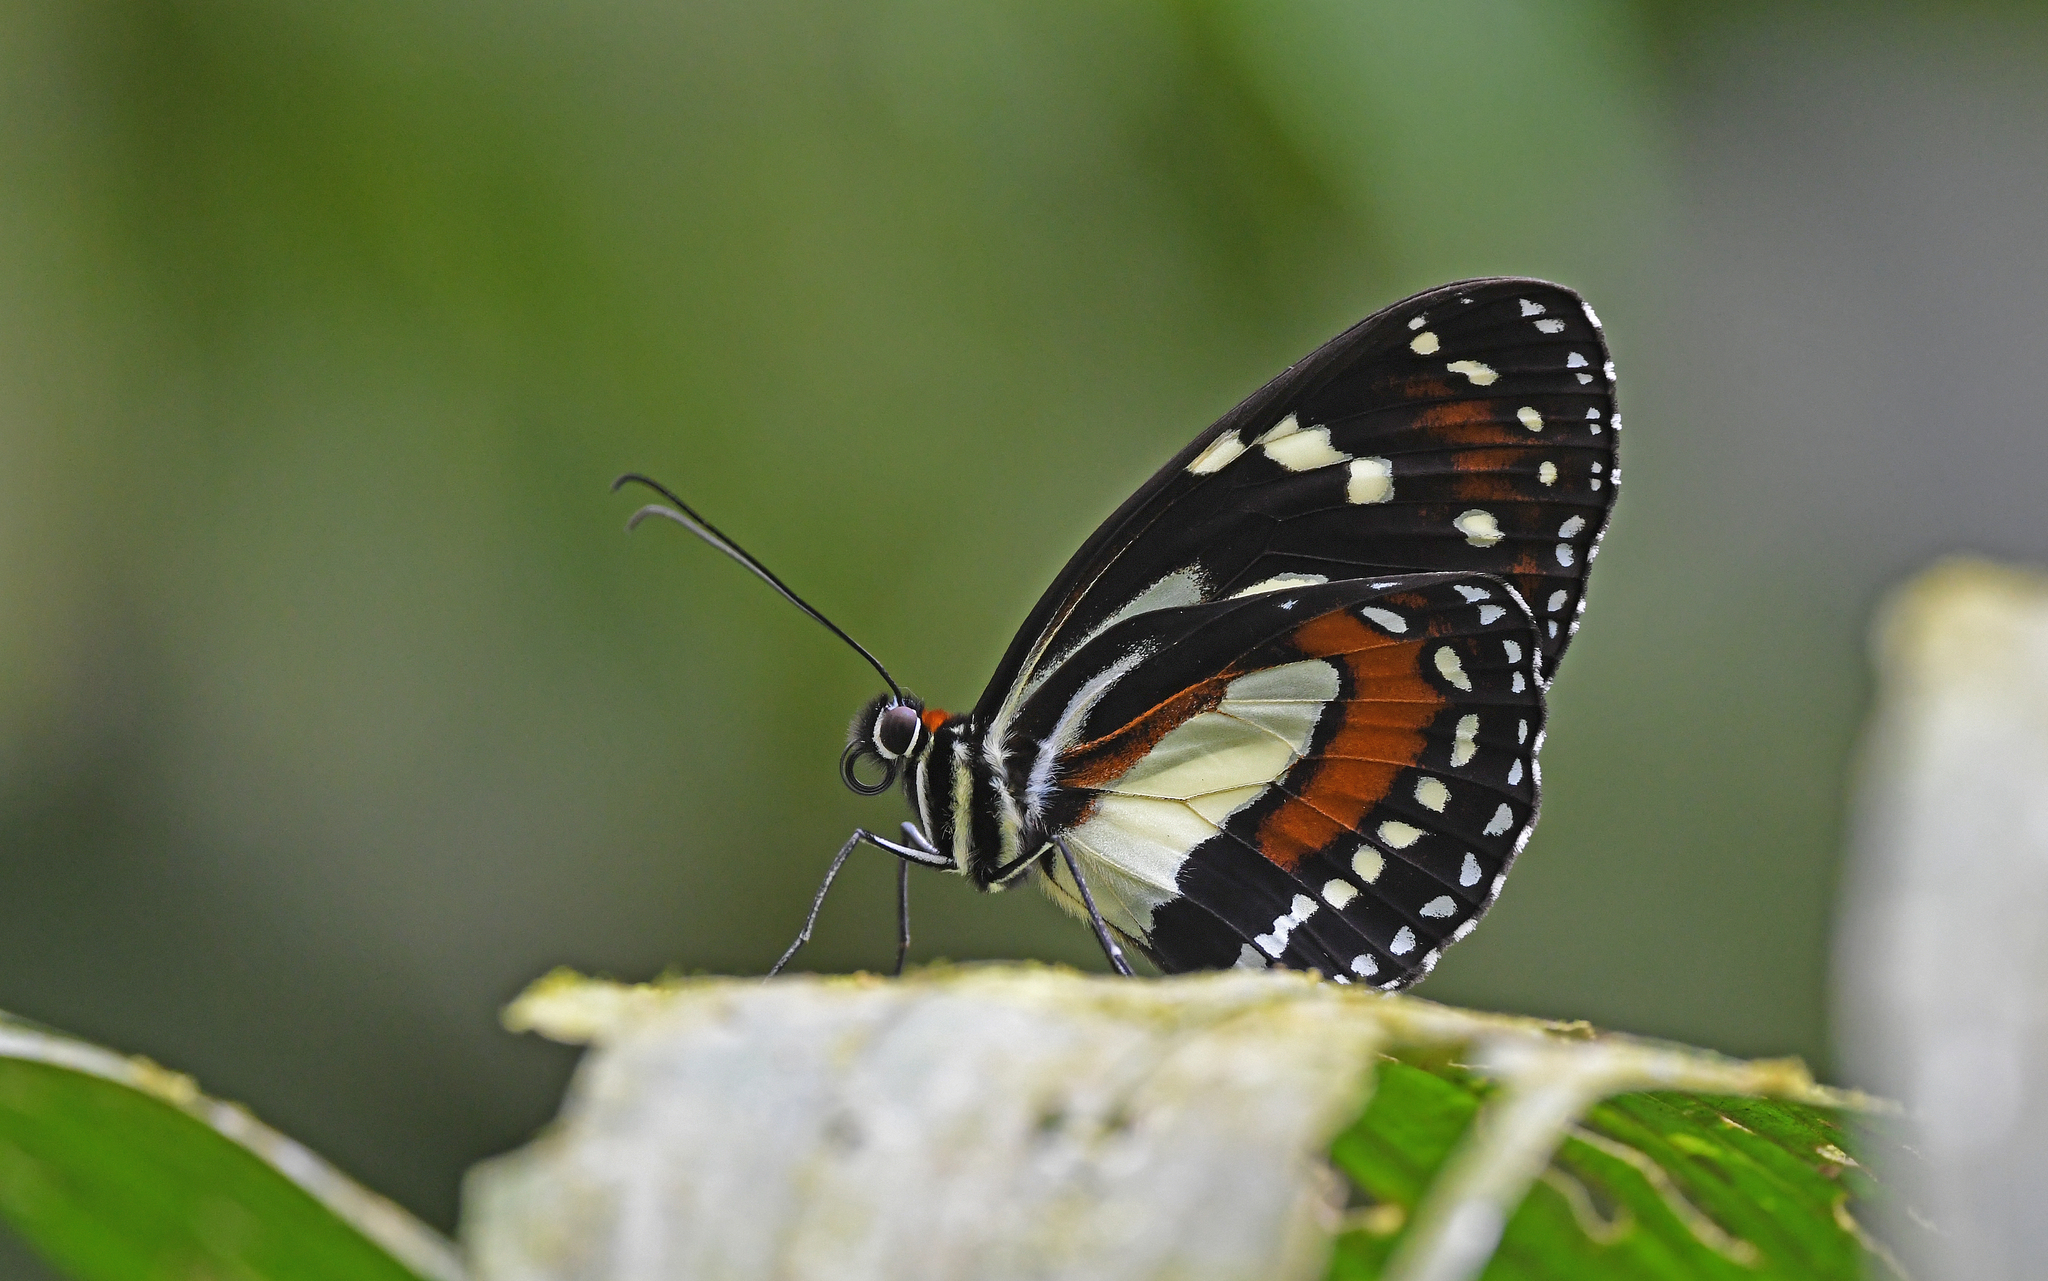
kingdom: Animalia
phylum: Arthropoda
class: Insecta
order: Lepidoptera
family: Nymphalidae
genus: Elzunia
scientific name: Elzunia
